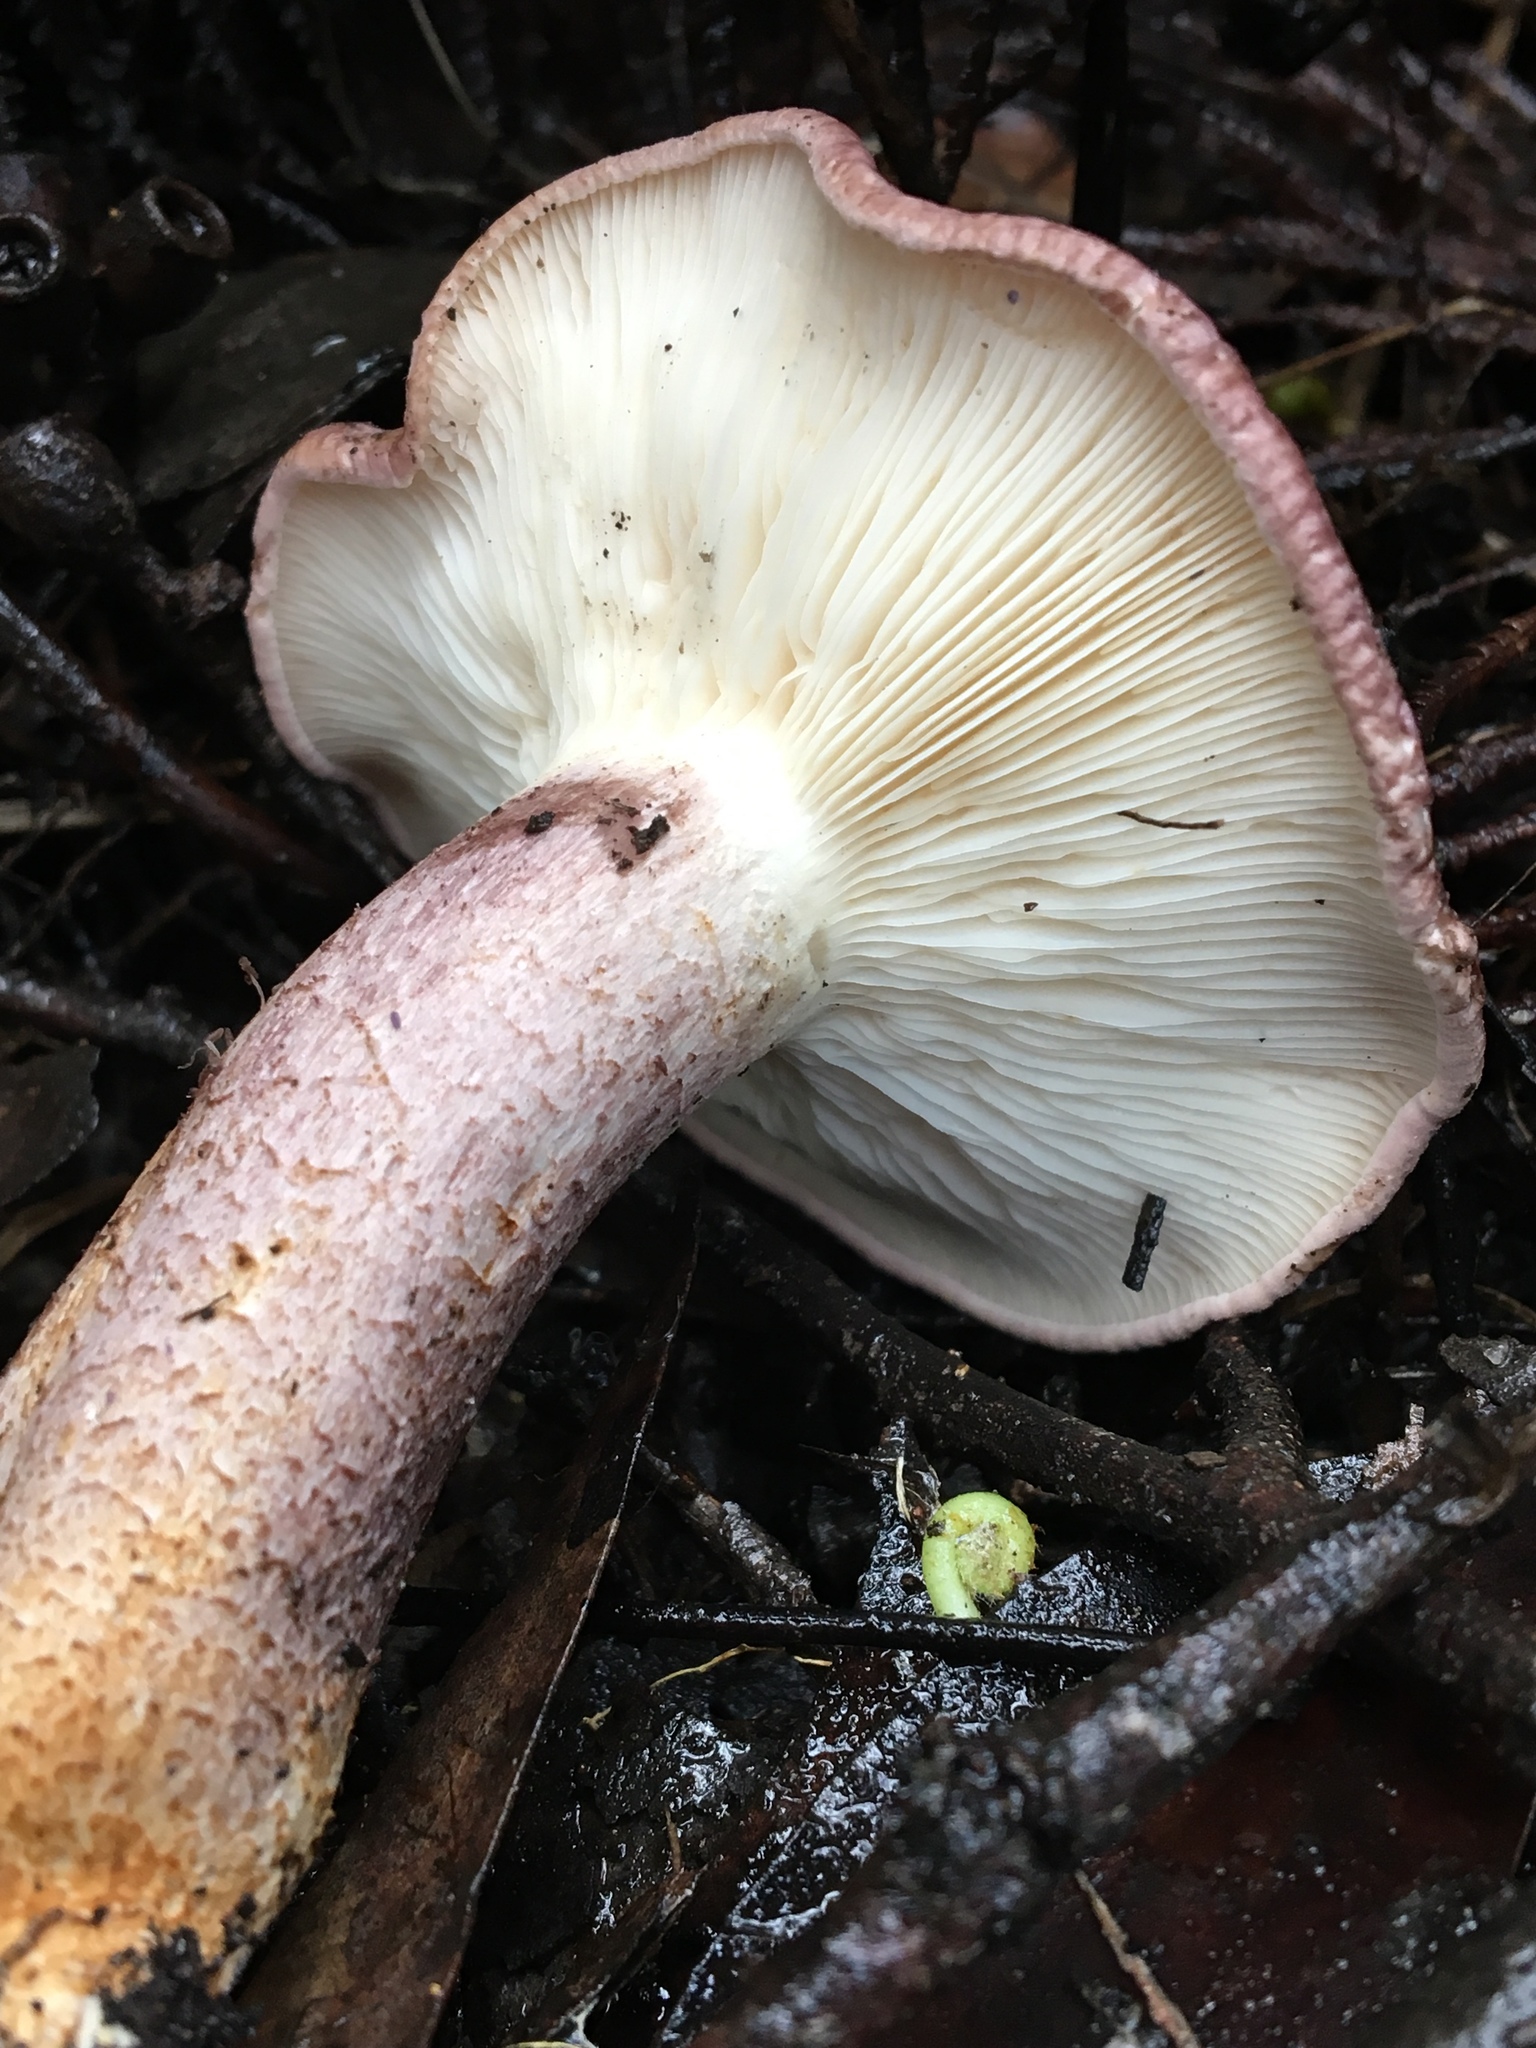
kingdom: Fungi
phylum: Basidiomycota
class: Agaricomycetes
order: Agaricales
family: Tricholomataceae
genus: Leucopaxillus
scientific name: Leucopaxillus lilacinus
